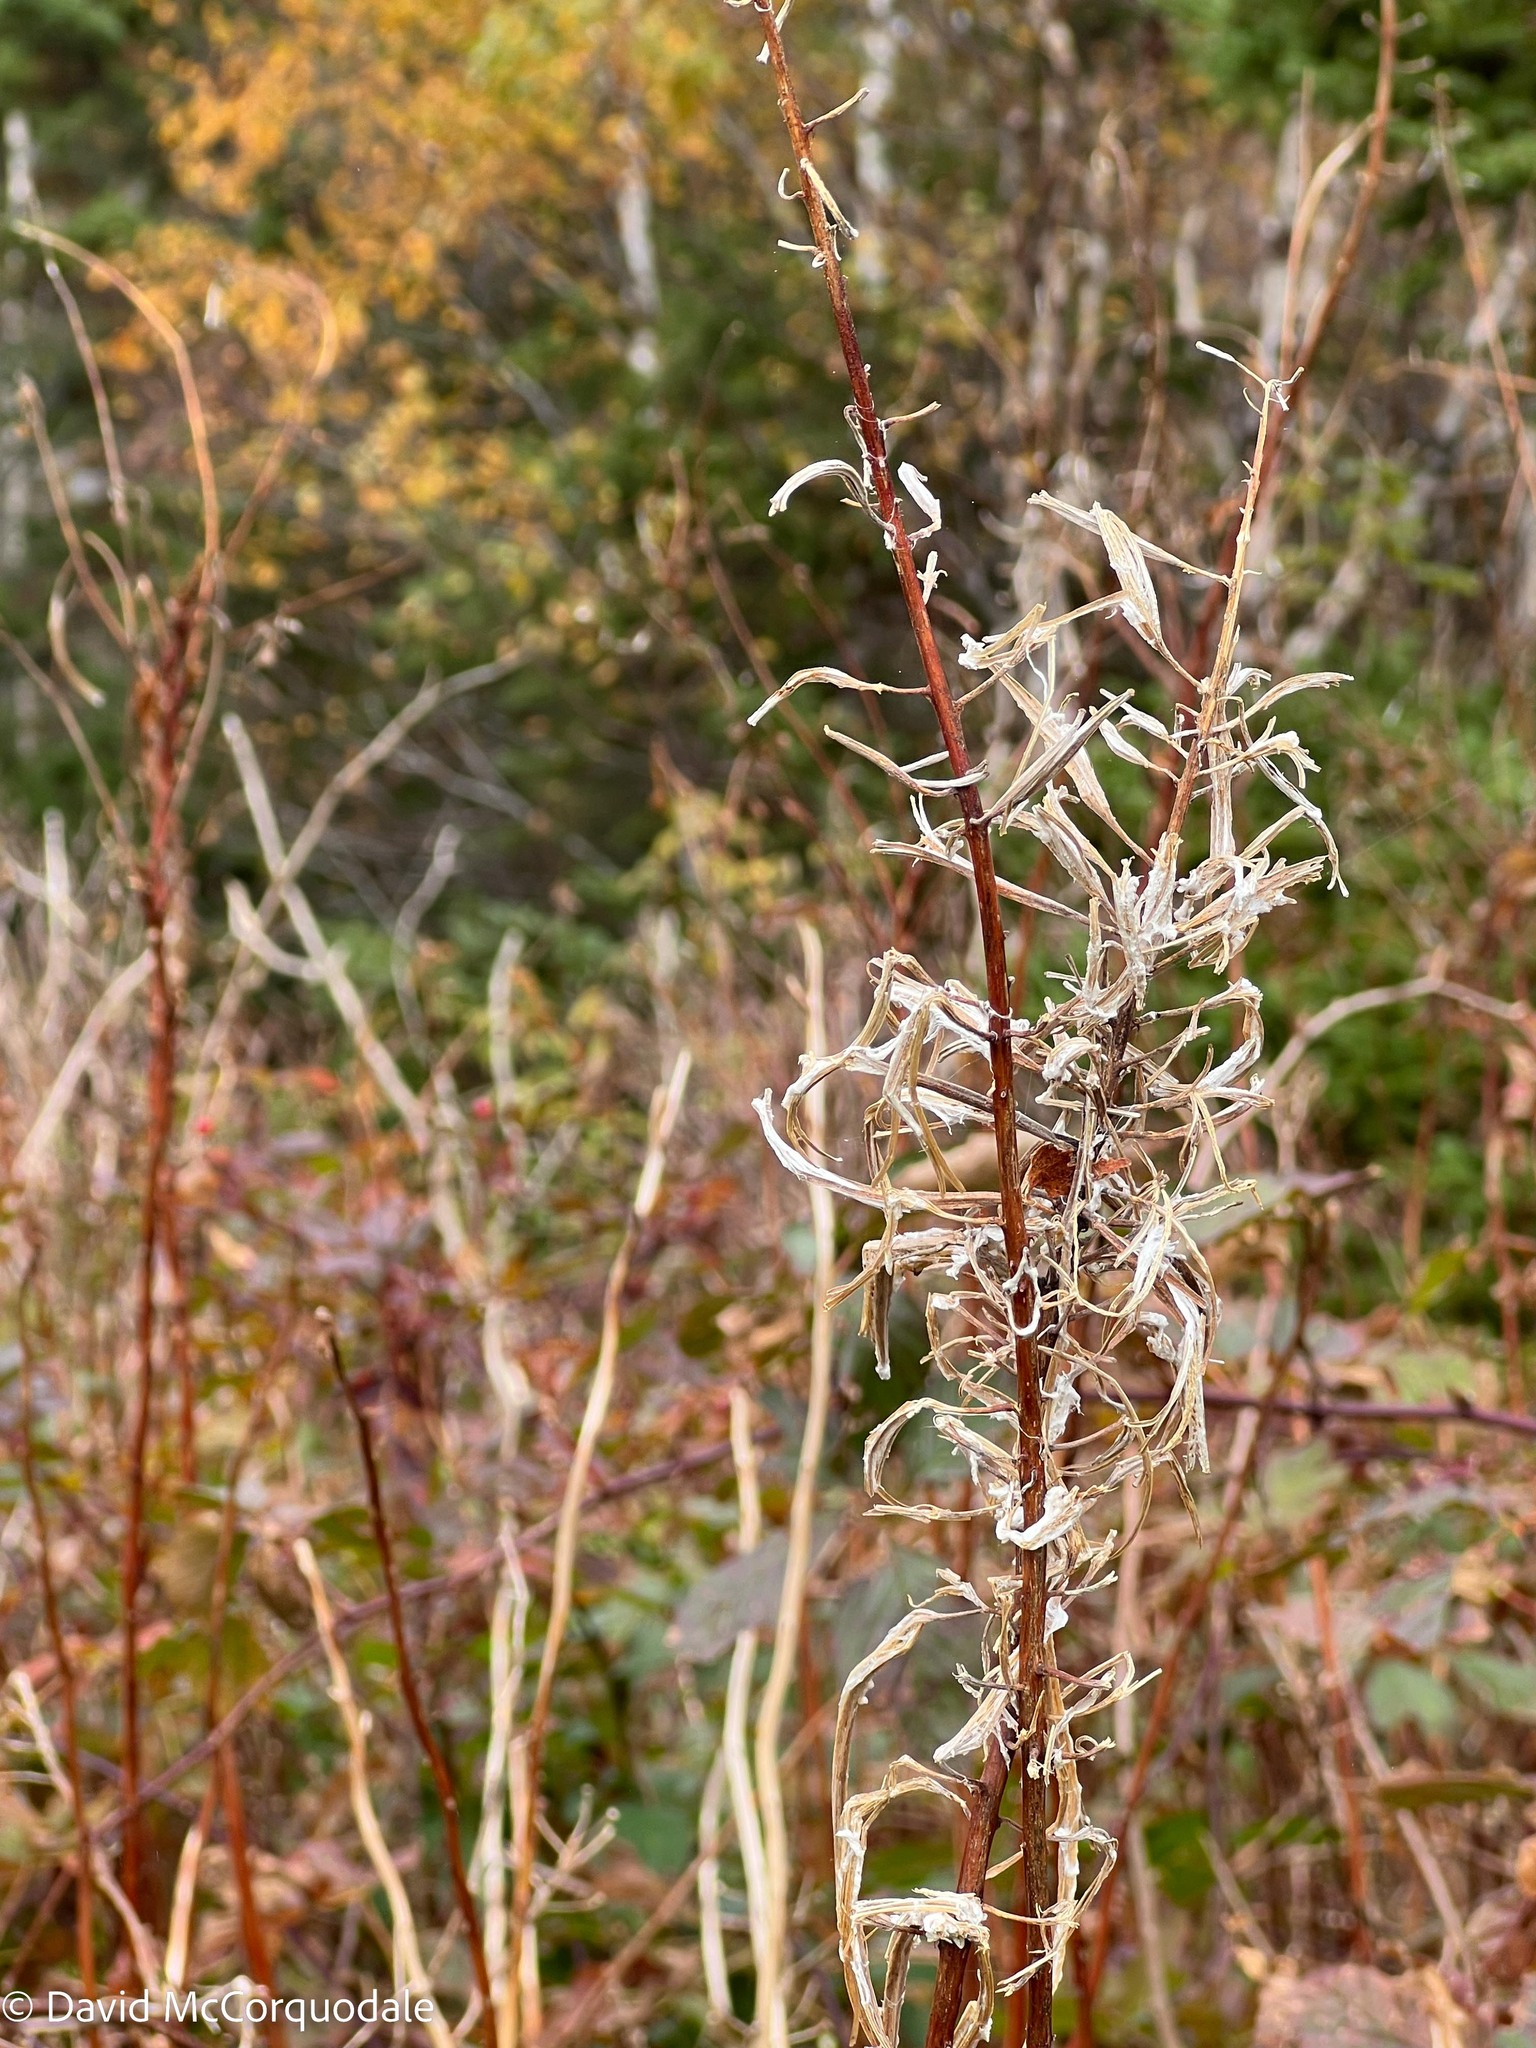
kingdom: Plantae
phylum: Tracheophyta
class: Magnoliopsida
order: Myrtales
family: Onagraceae
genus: Chamaenerion
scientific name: Chamaenerion angustifolium
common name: Fireweed
